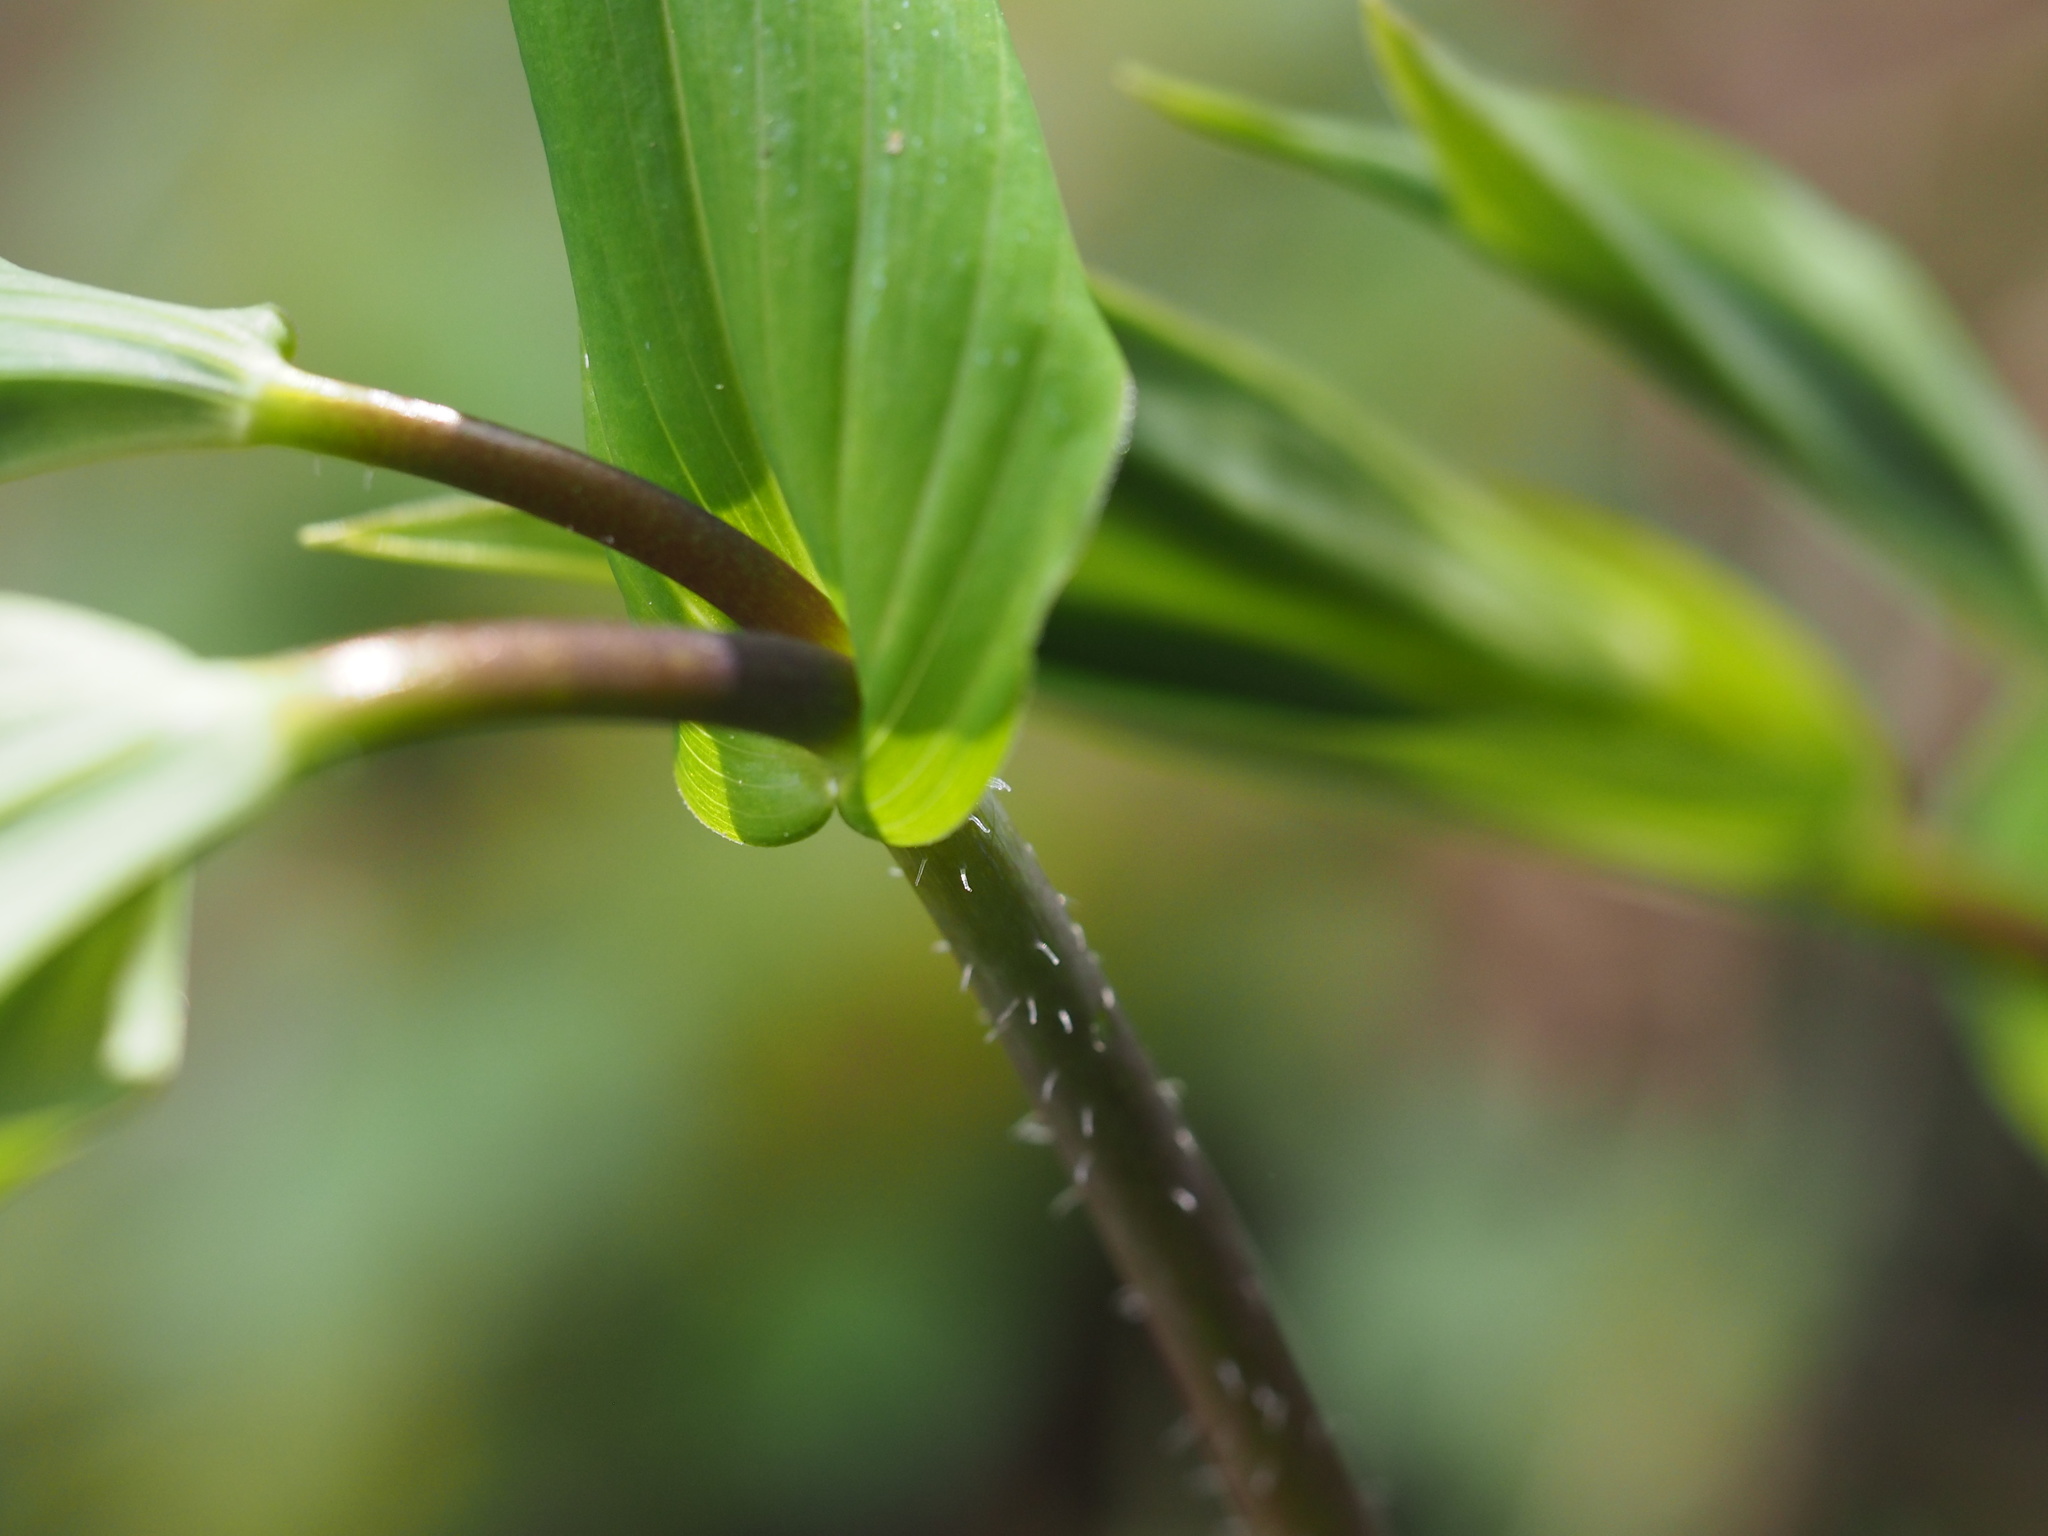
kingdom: Plantae
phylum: Tracheophyta
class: Liliopsida
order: Liliales
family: Liliaceae
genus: Streptopus
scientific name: Streptopus amplexifolius
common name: Clasp twisted stalk
